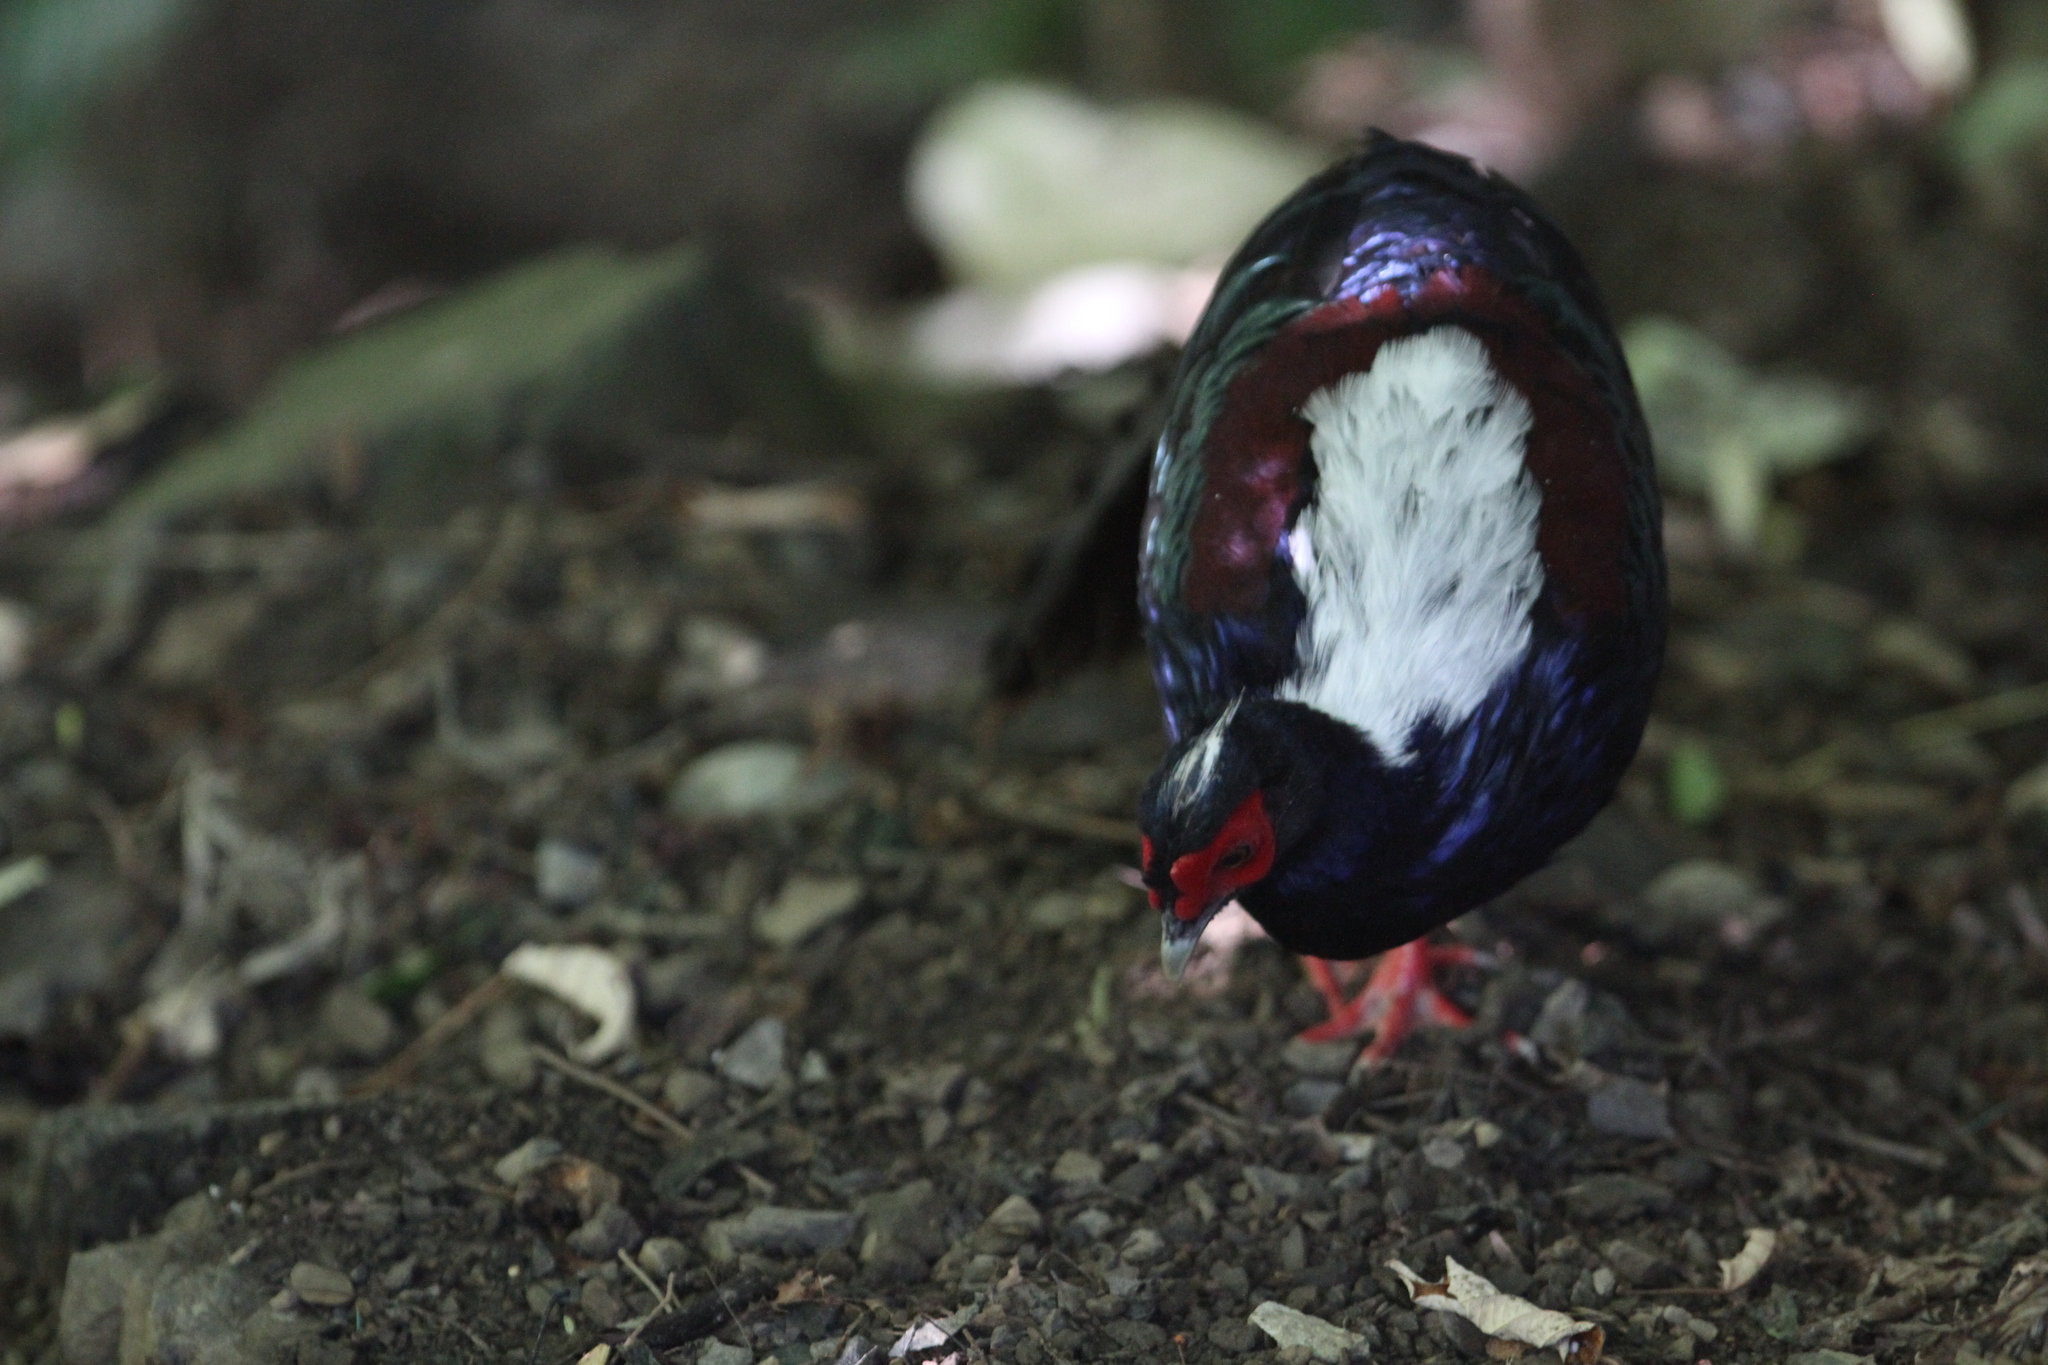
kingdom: Animalia
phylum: Chordata
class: Aves
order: Galliformes
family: Phasianidae
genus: Lophura
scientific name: Lophura swinhoii
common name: Swinhoe's pheasant
